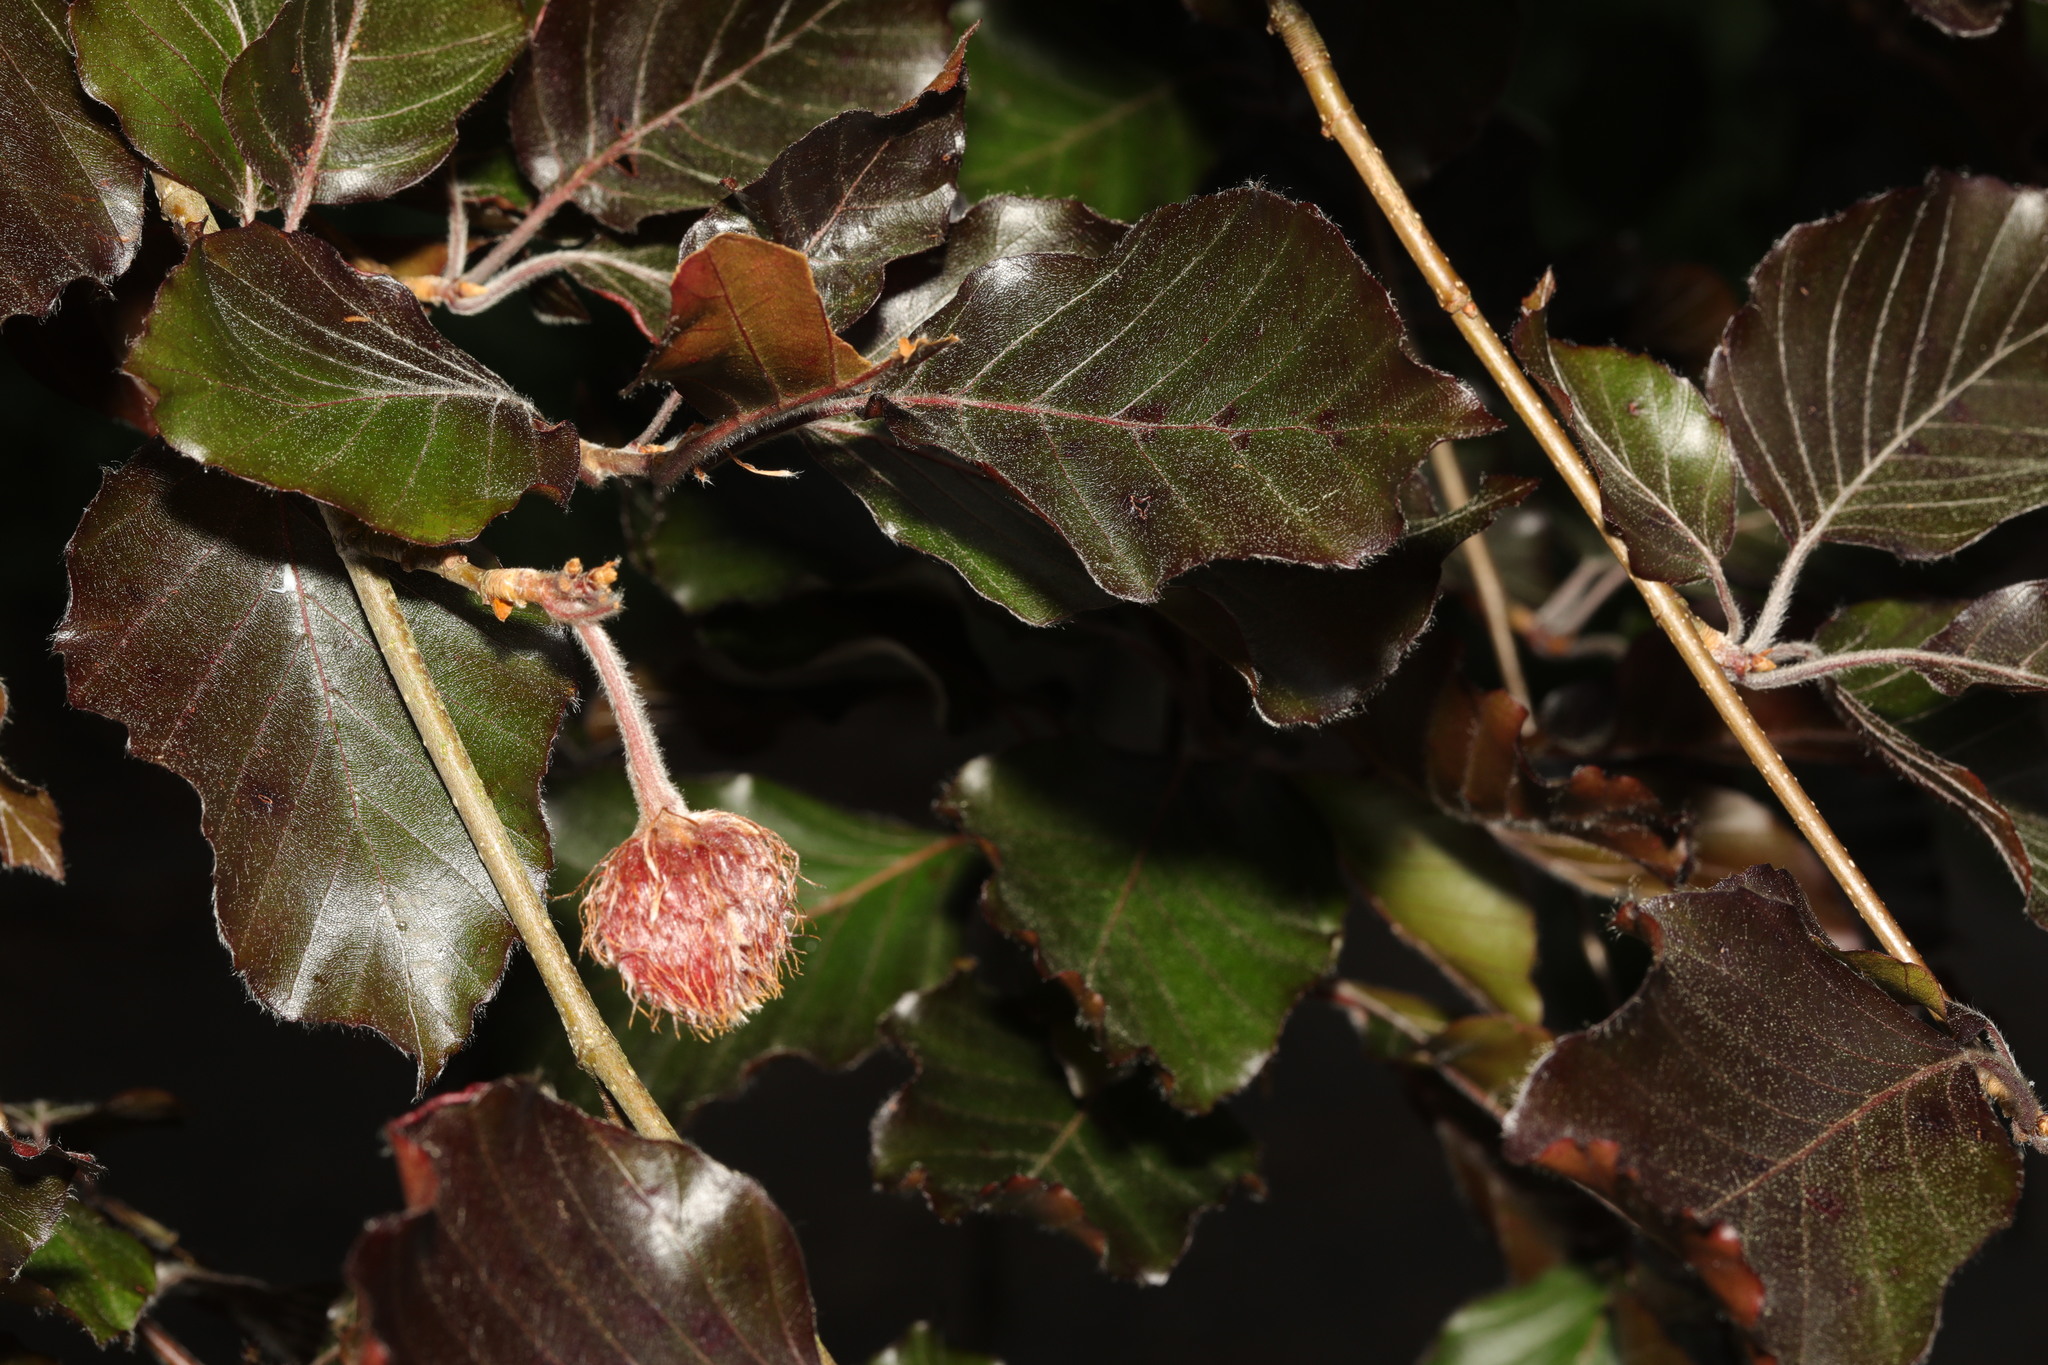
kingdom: Plantae
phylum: Tracheophyta
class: Magnoliopsida
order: Fagales
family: Fagaceae
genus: Fagus
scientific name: Fagus sylvatica
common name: Beech
